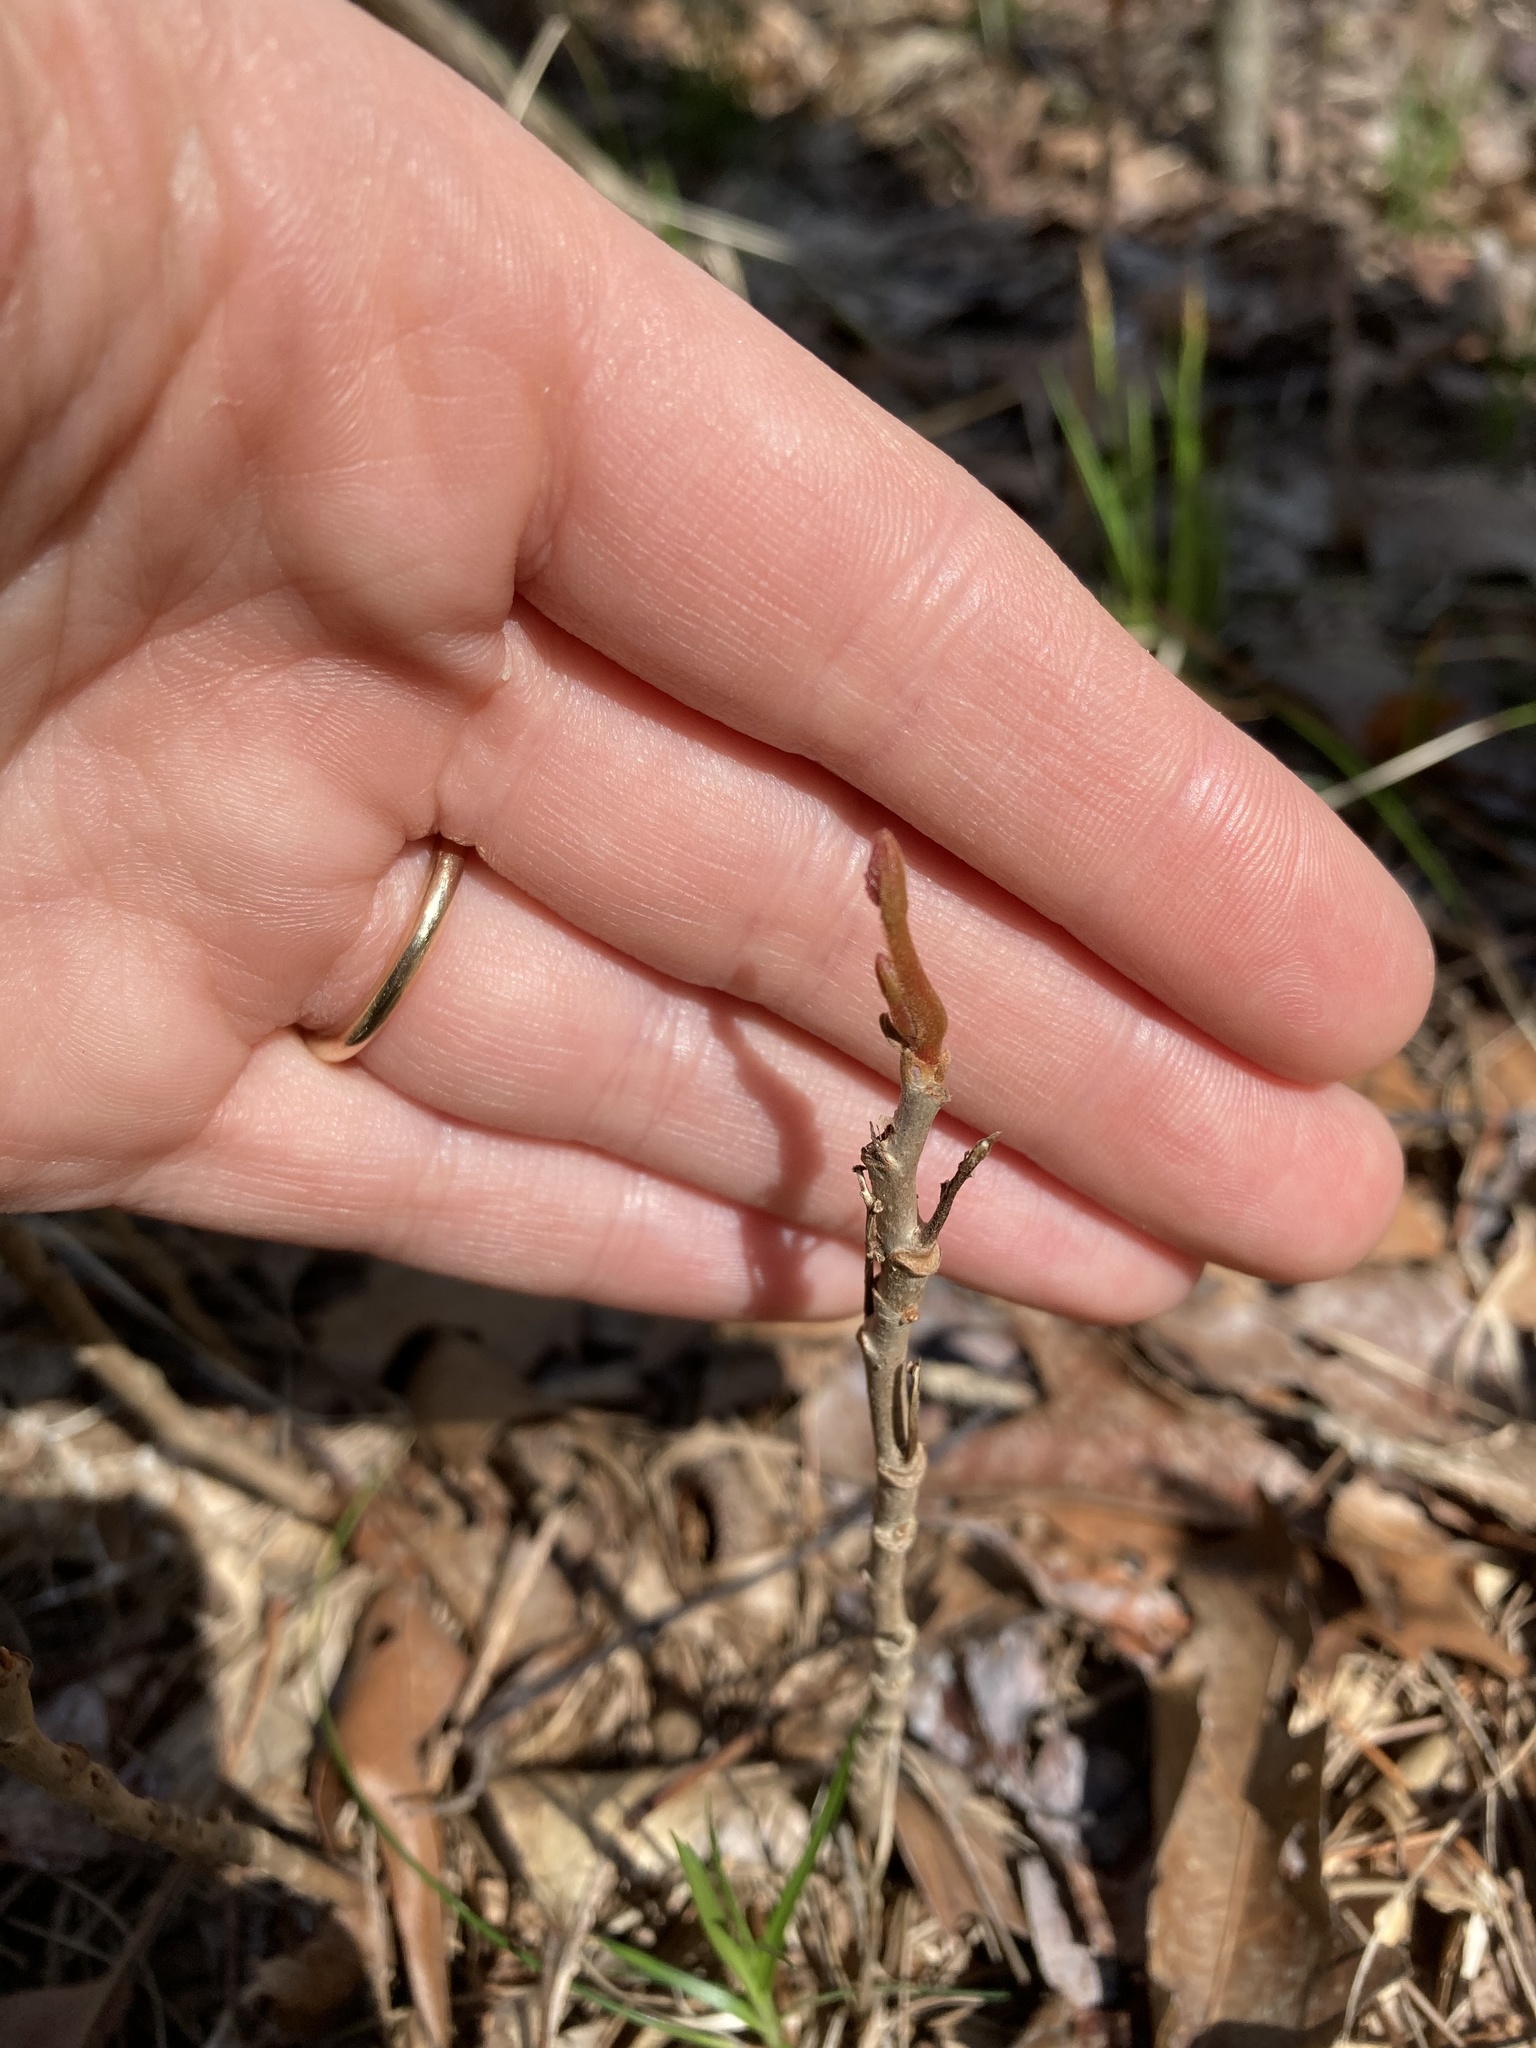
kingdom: Plantae
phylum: Tracheophyta
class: Magnoliopsida
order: Sapindales
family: Anacardiaceae
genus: Toxicodendron
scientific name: Toxicodendron rydbergii
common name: Rydberg's poison-ivy
